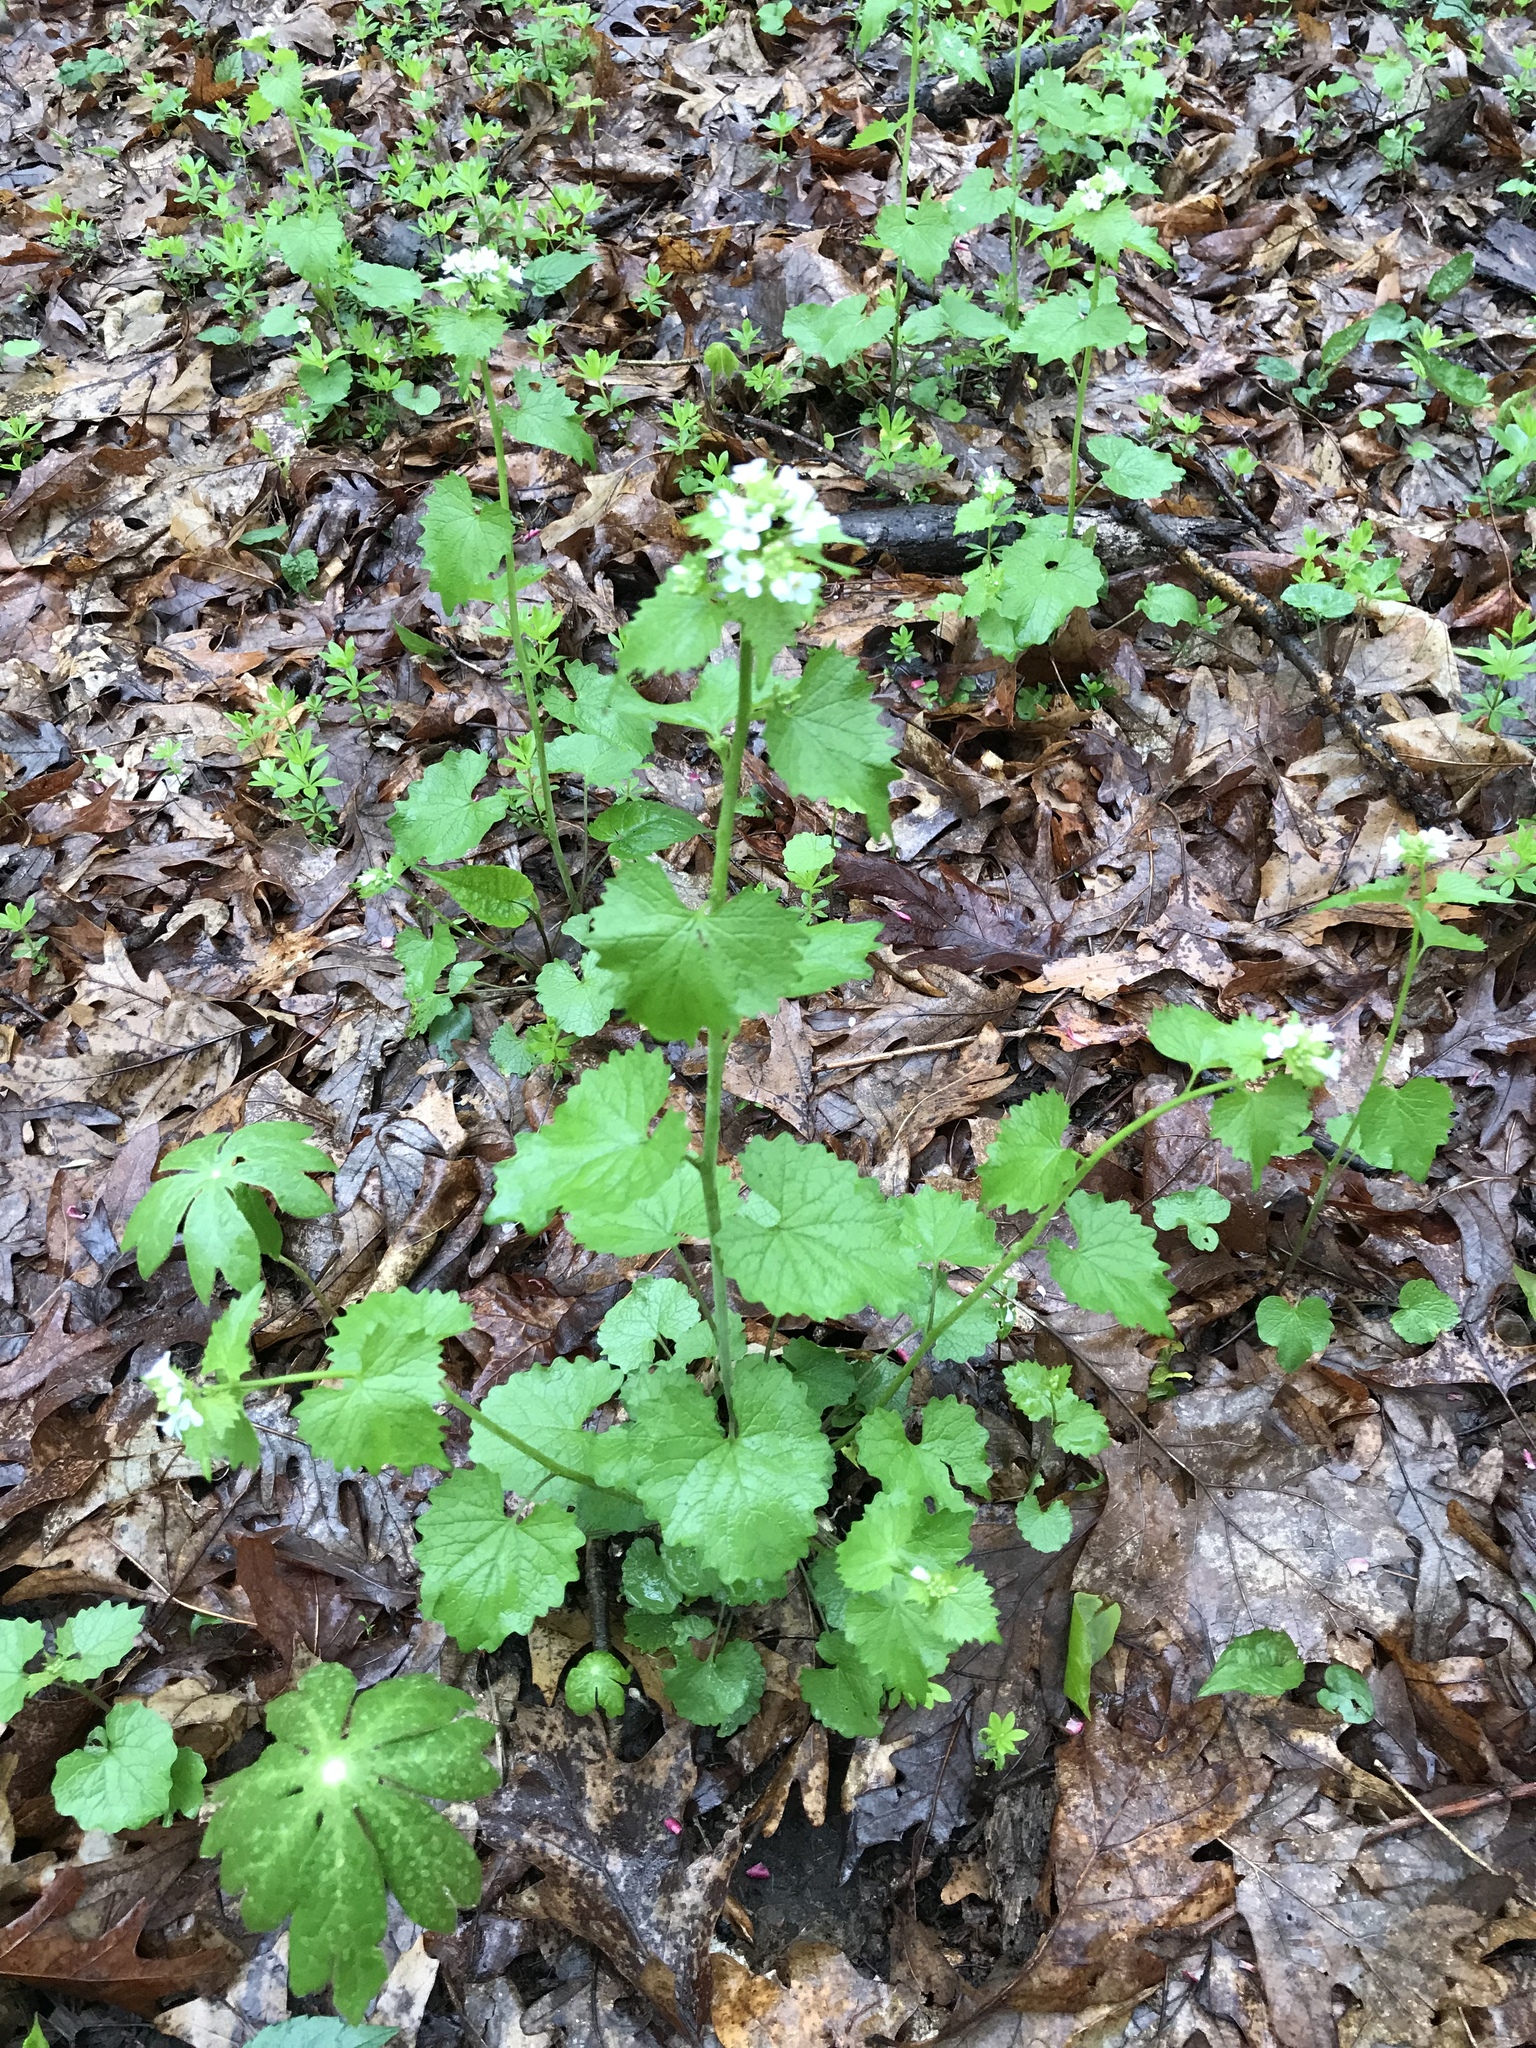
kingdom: Plantae
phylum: Tracheophyta
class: Magnoliopsida
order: Brassicales
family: Brassicaceae
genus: Alliaria
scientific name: Alliaria petiolata
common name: Garlic mustard
